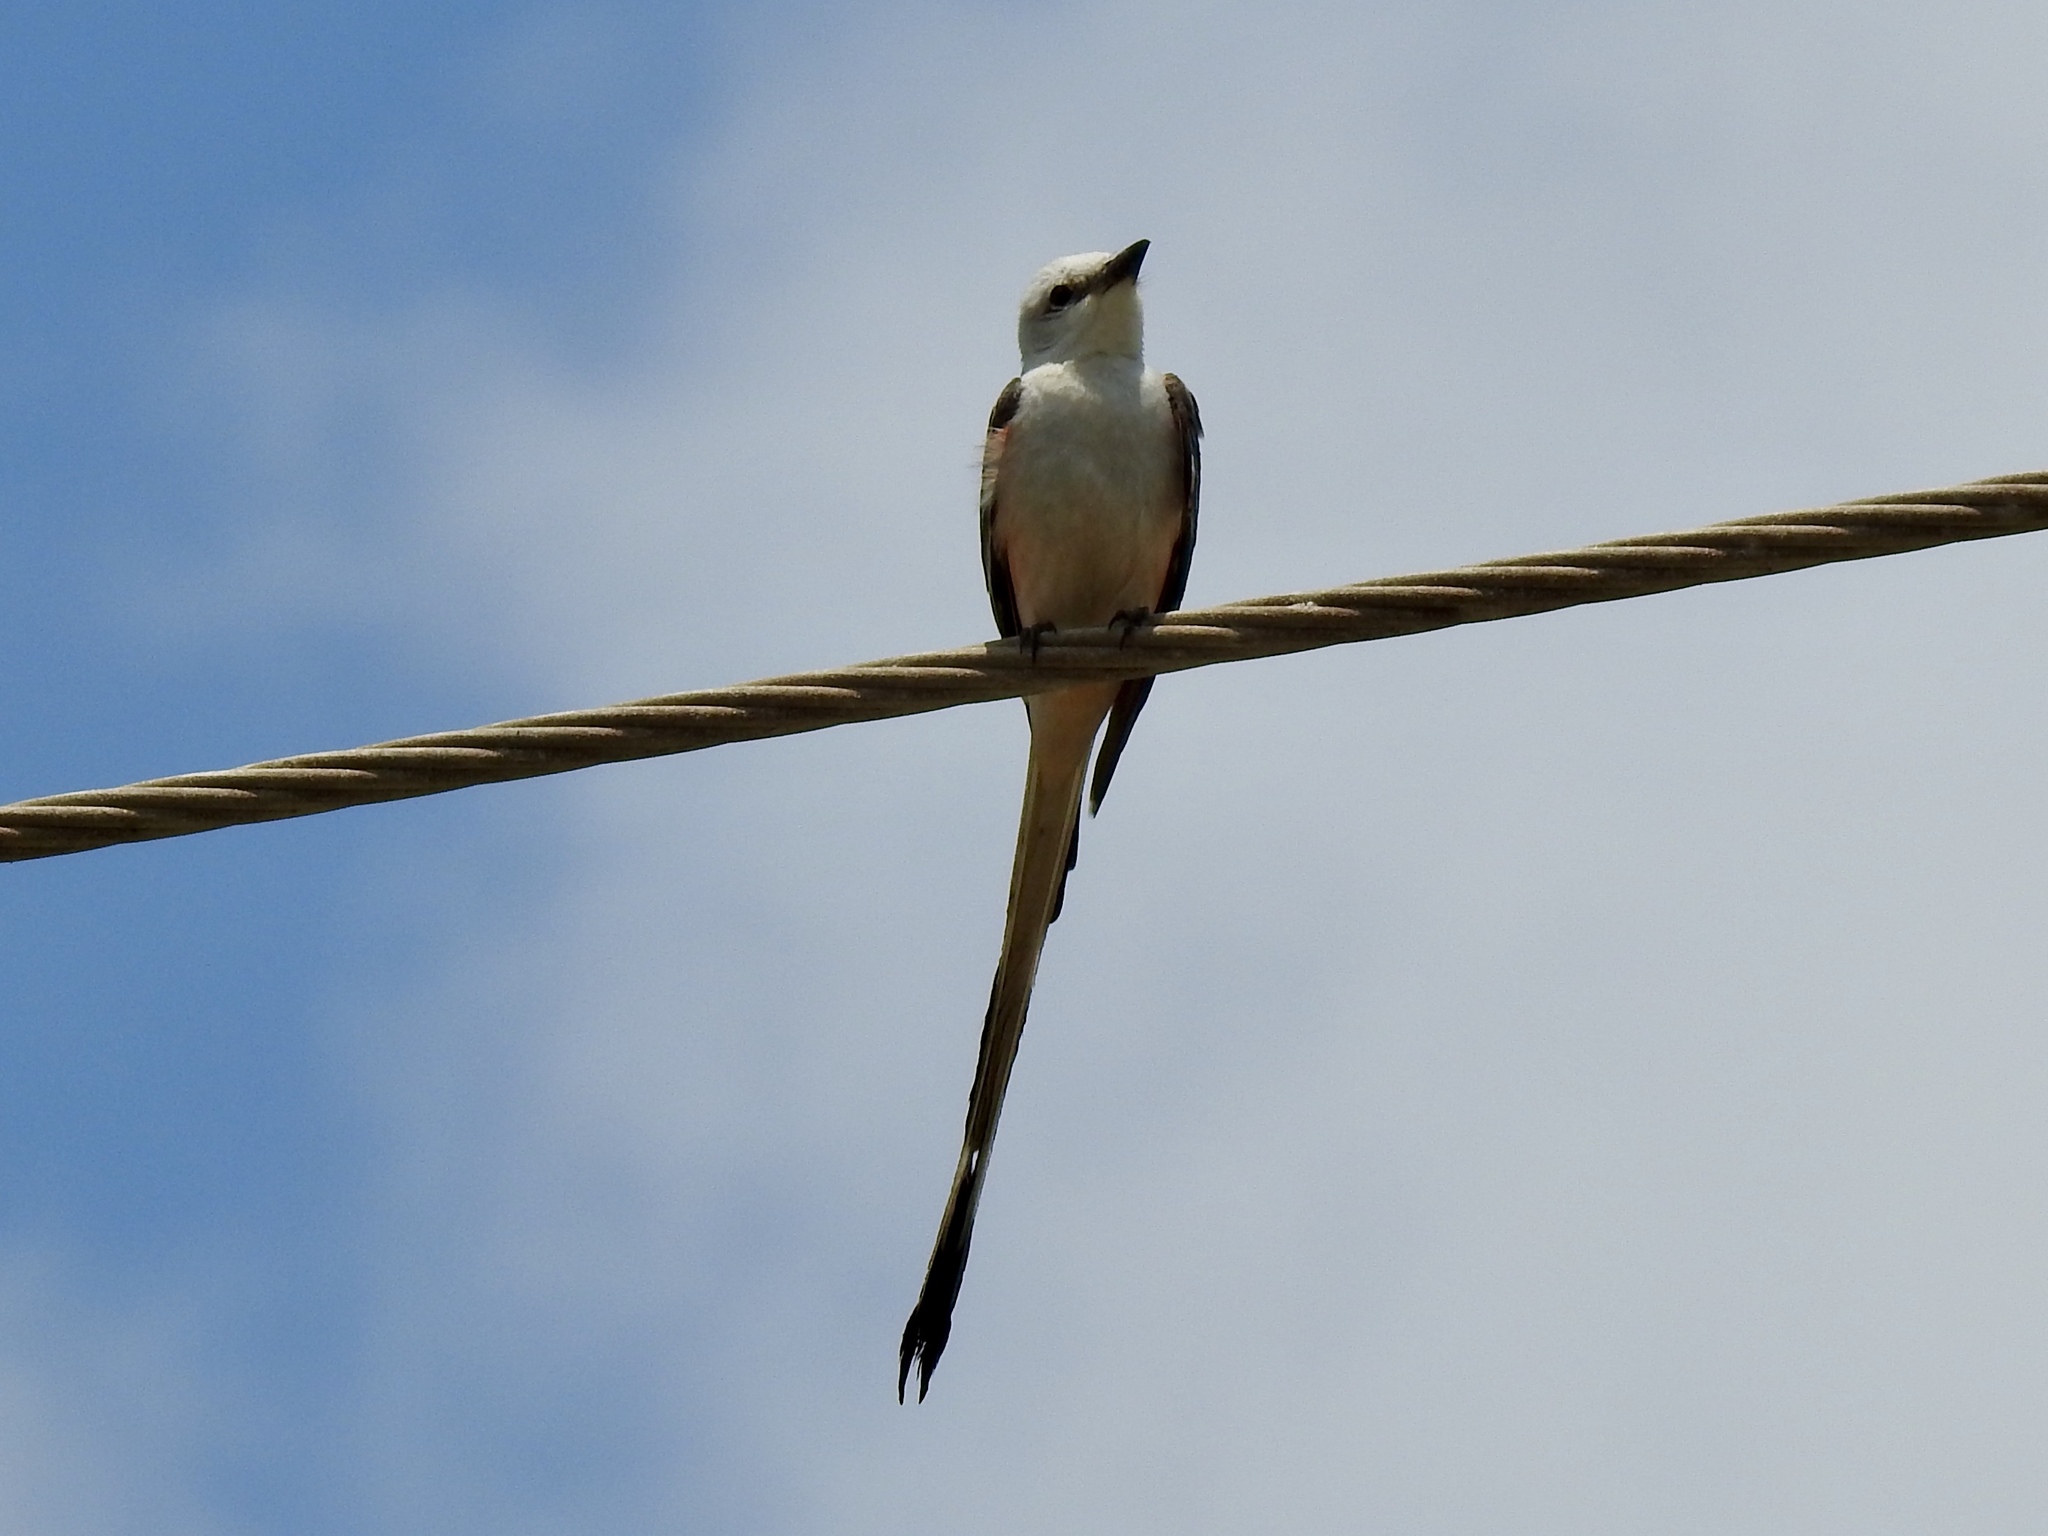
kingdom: Animalia
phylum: Chordata
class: Aves
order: Passeriformes
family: Tyrannidae
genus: Tyrannus
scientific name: Tyrannus forficatus
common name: Scissor-tailed flycatcher
